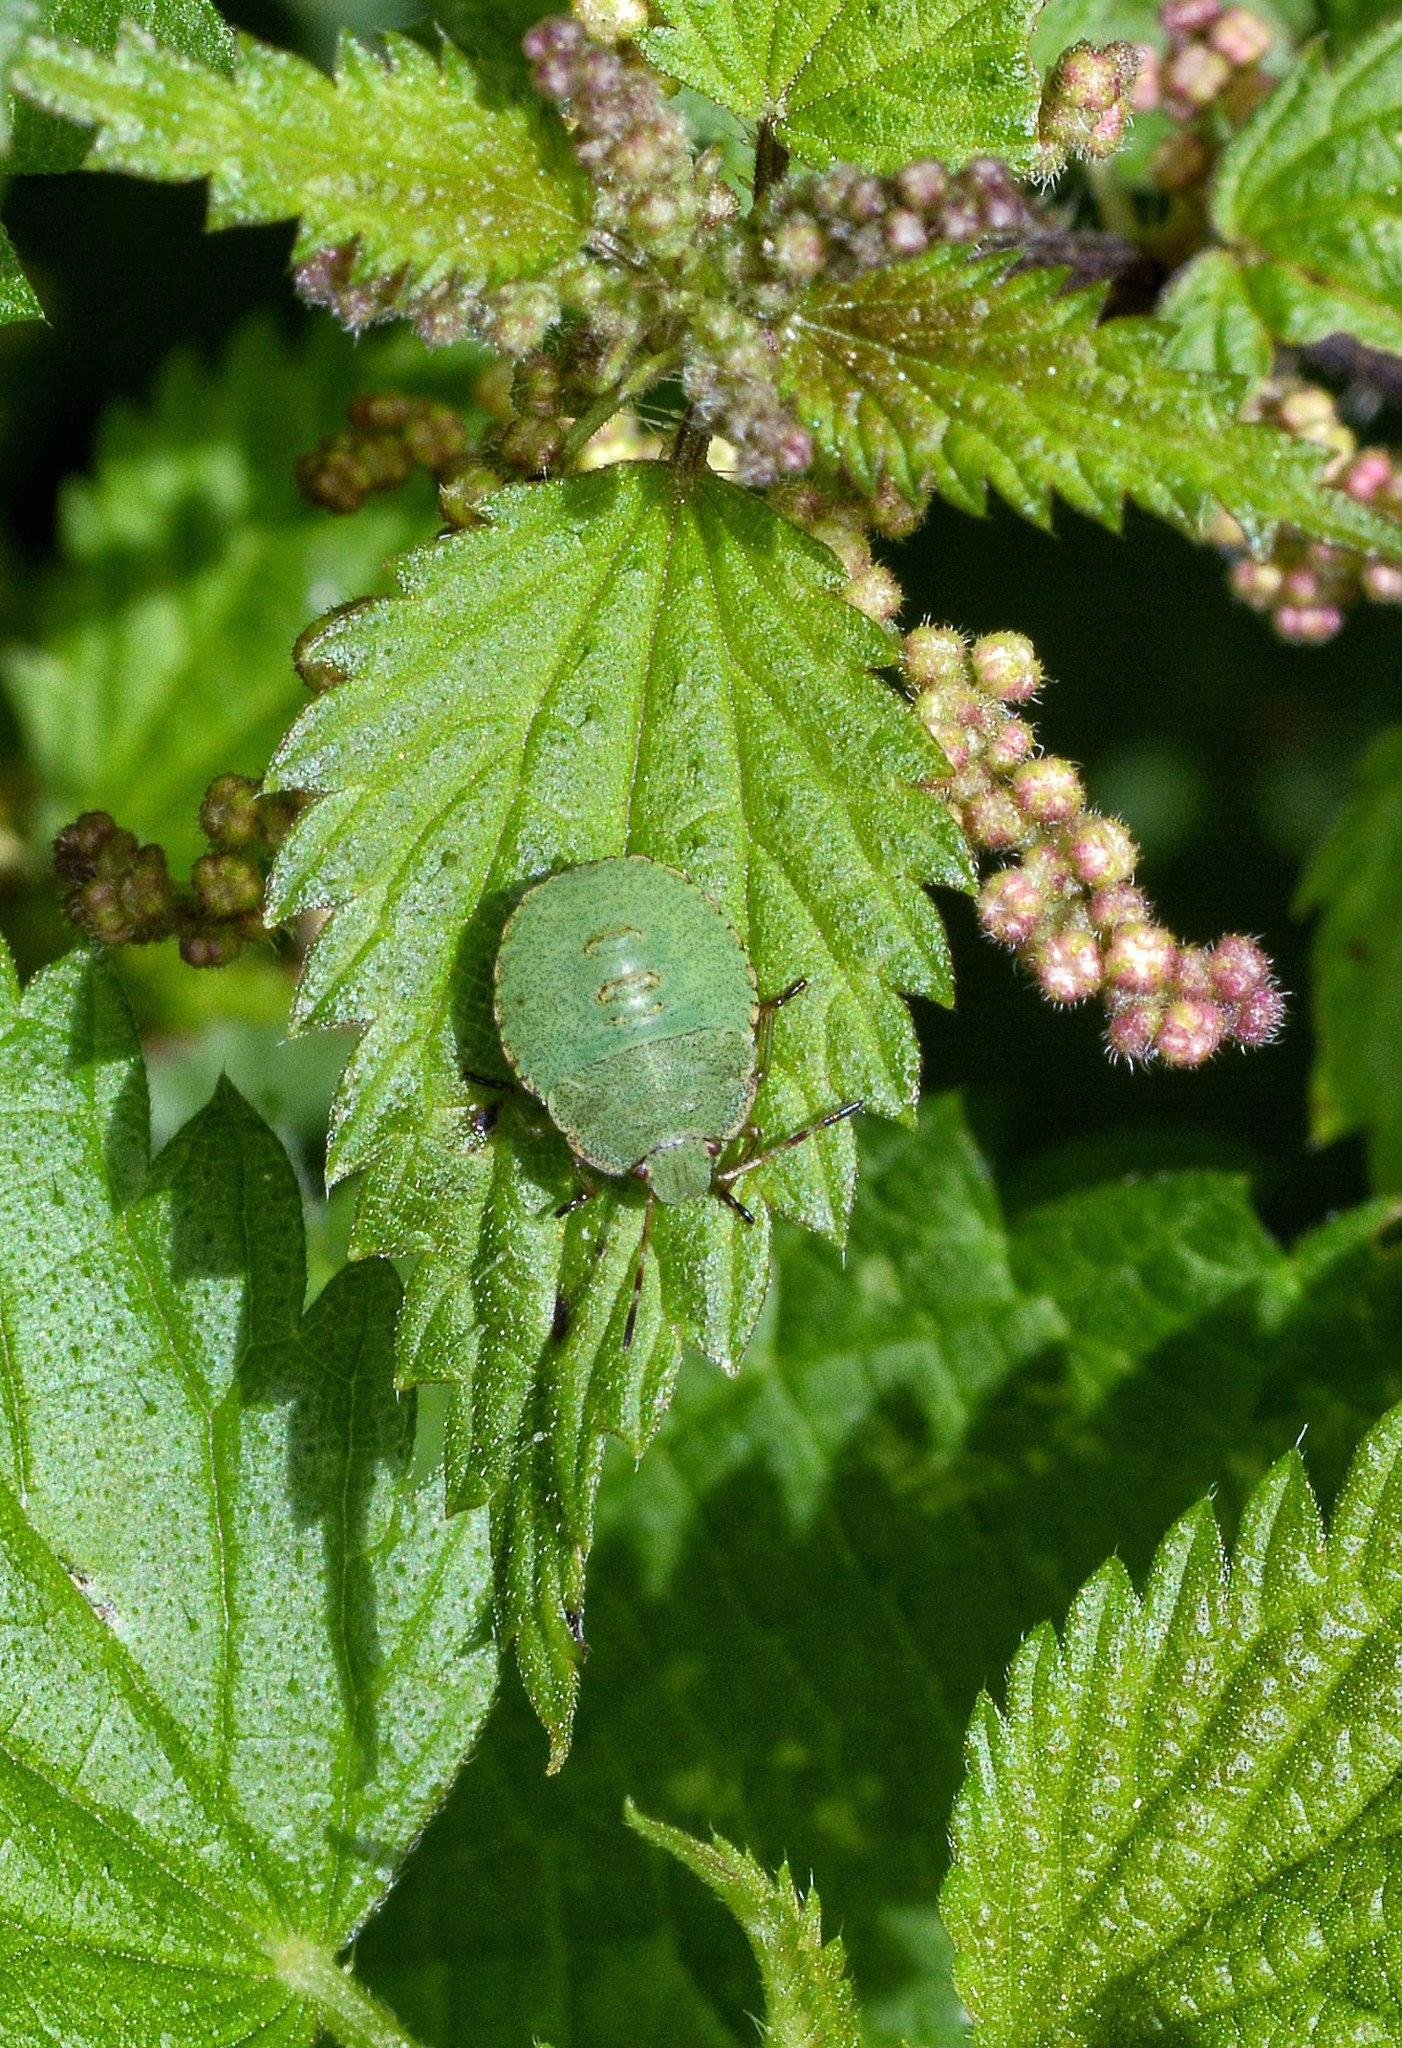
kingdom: Animalia
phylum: Arthropoda
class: Insecta
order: Hemiptera
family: Pentatomidae
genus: Palomena
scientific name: Palomena prasina
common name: Green shieldbug
